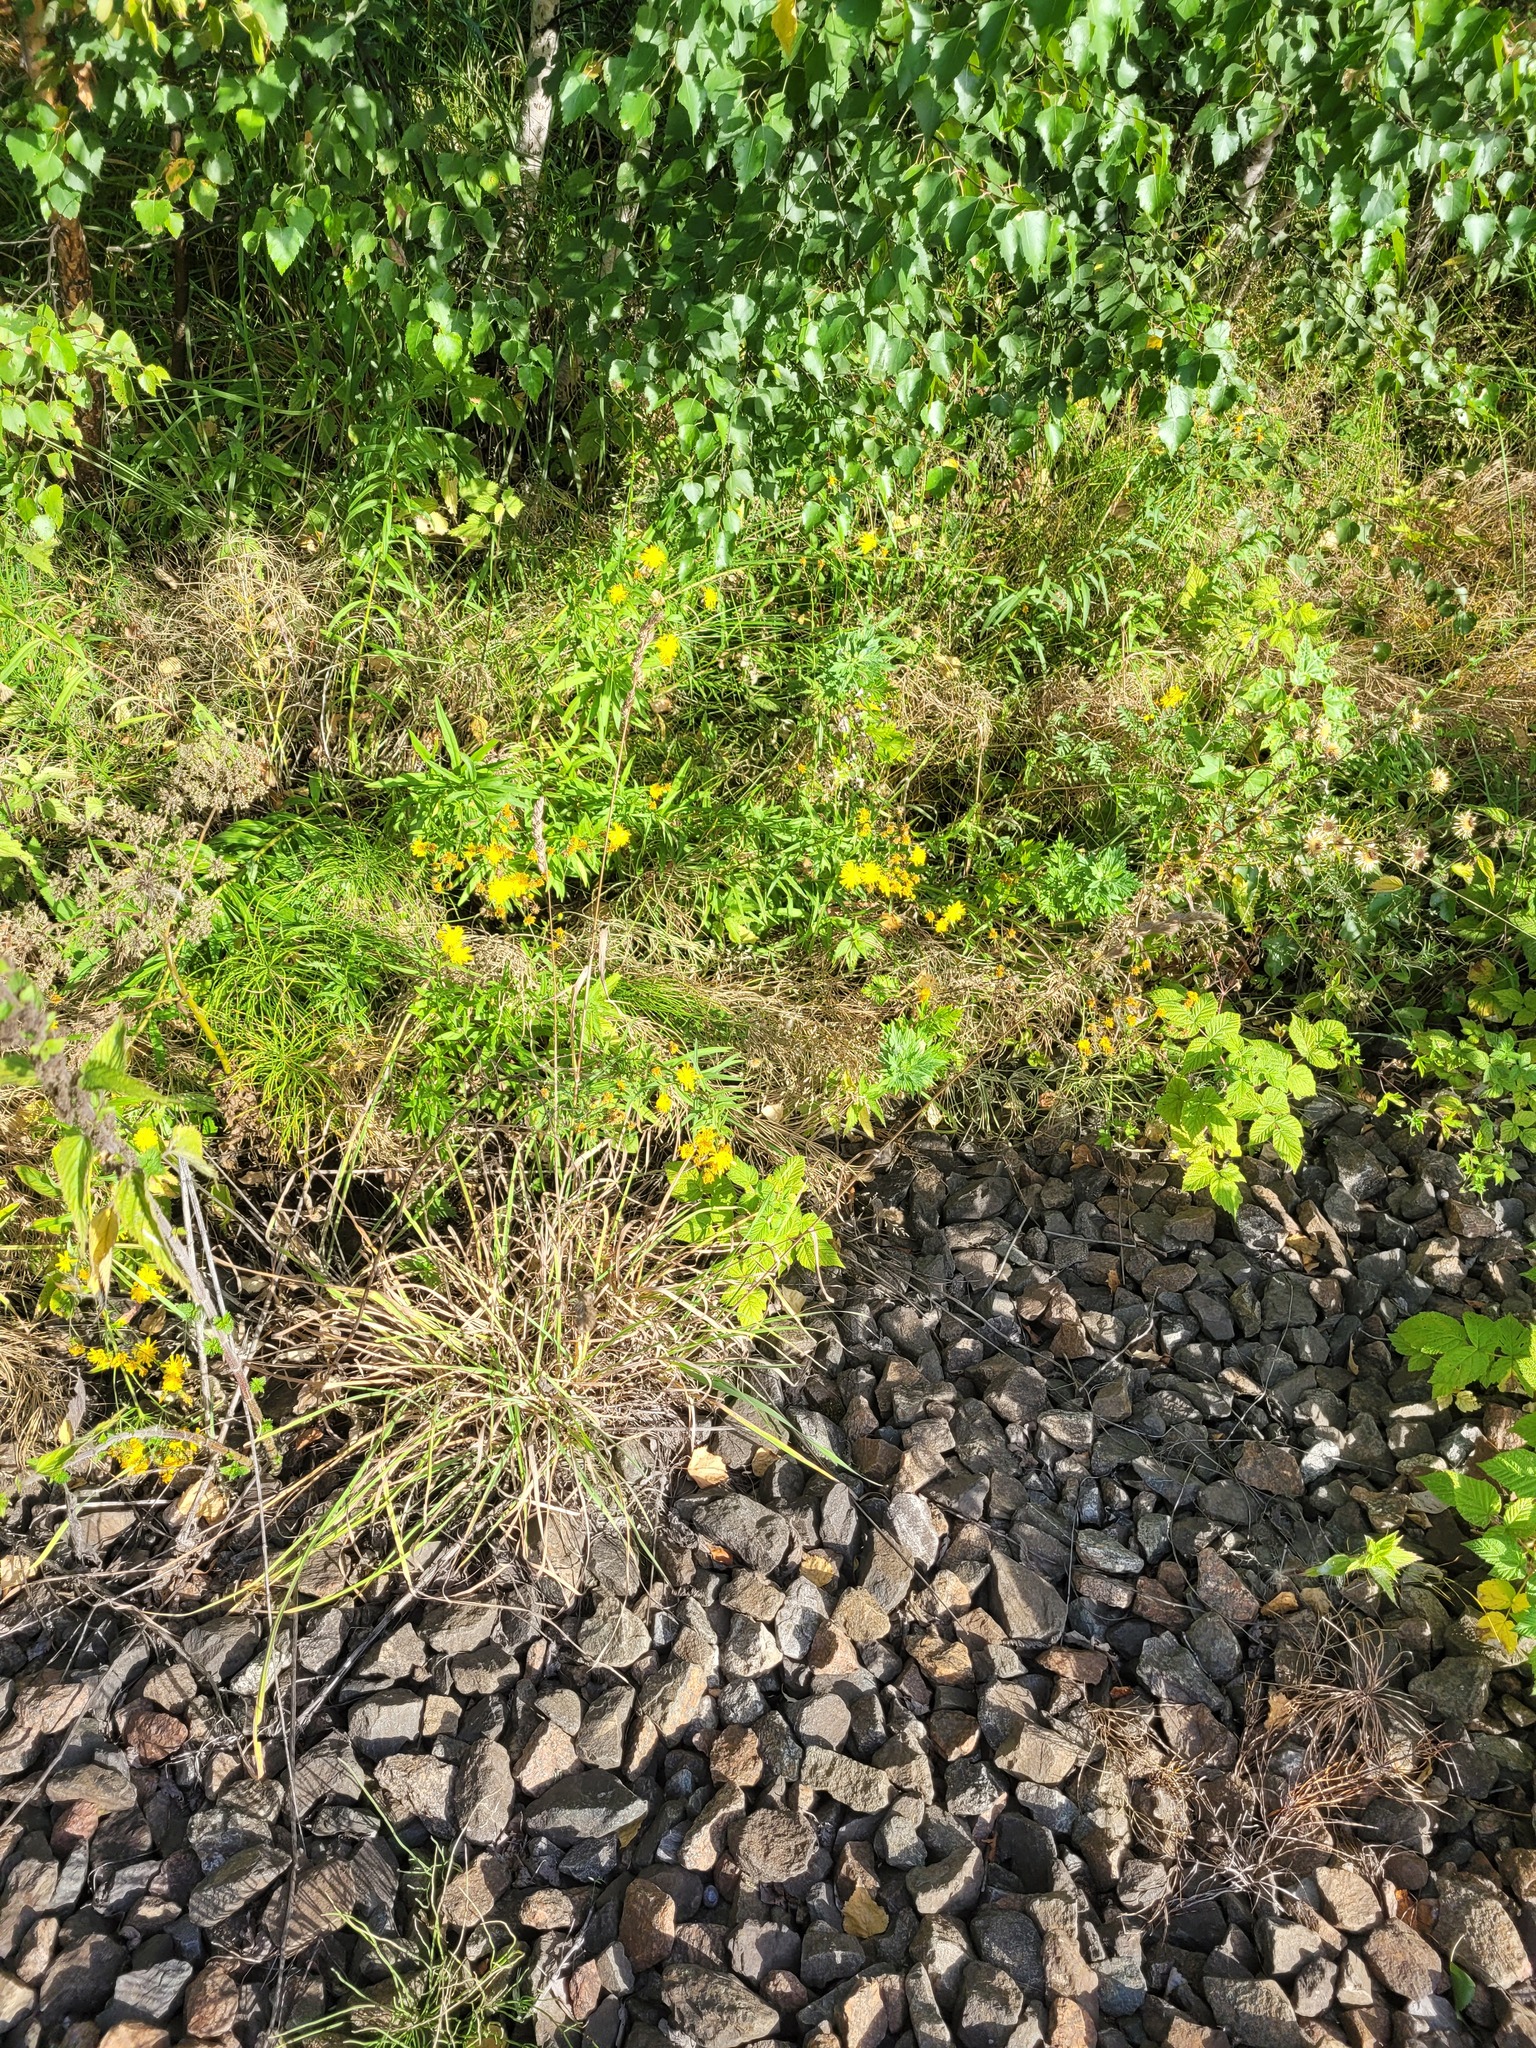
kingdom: Plantae
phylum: Tracheophyta
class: Liliopsida
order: Poales
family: Poaceae
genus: Dactylis
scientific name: Dactylis glomerata
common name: Orchardgrass
